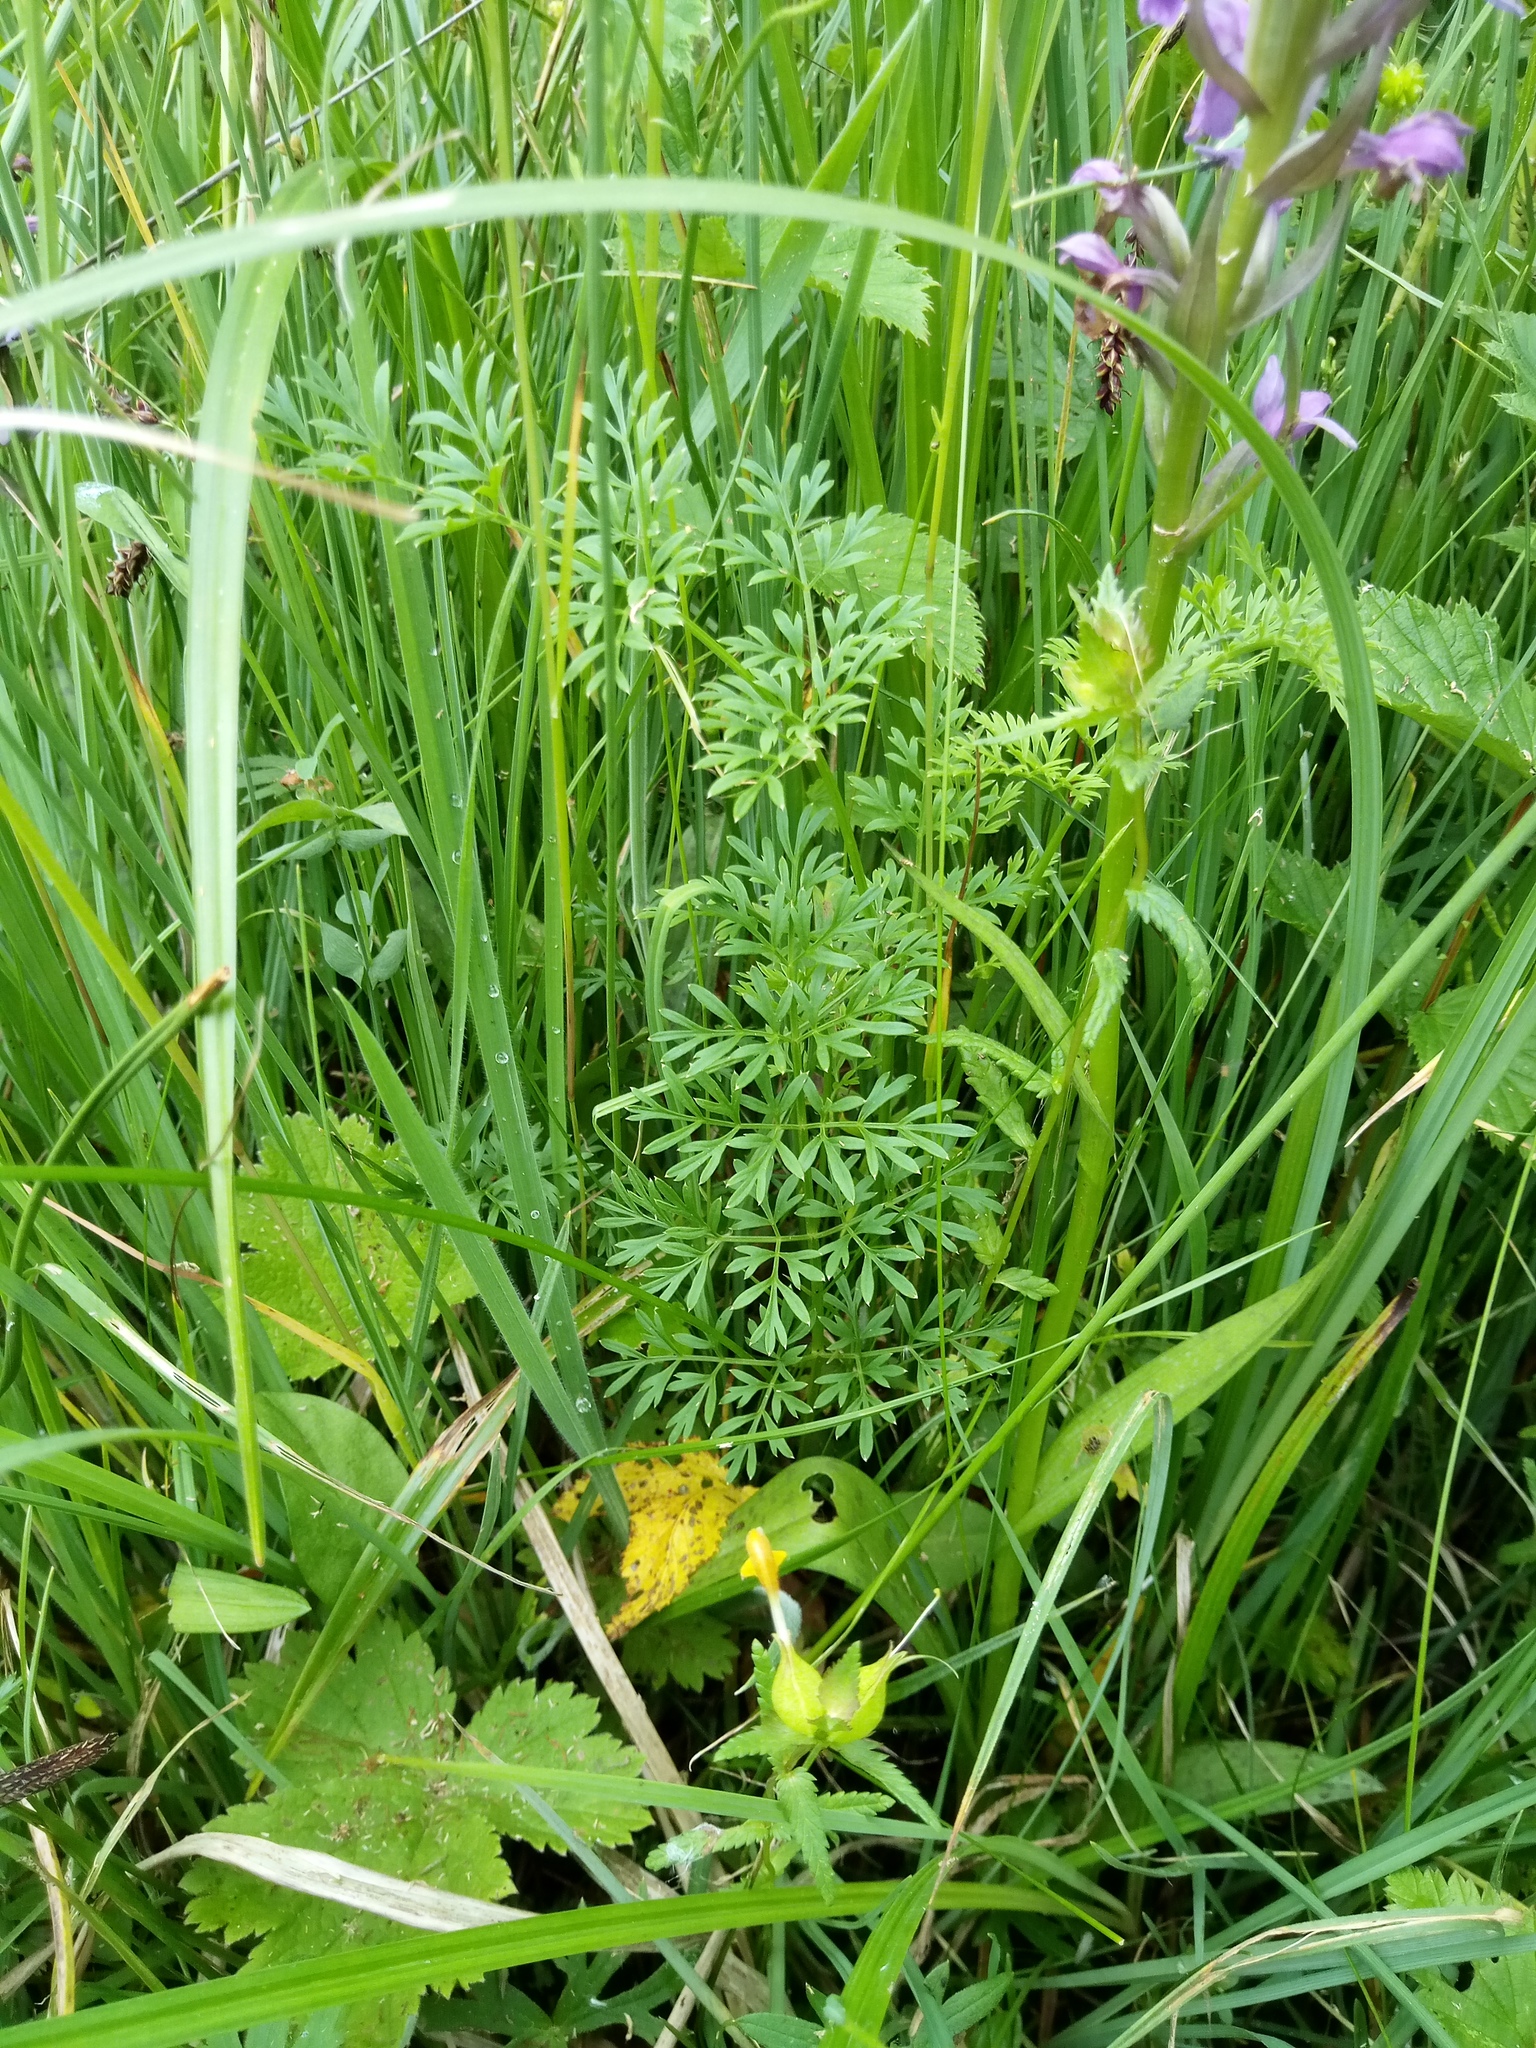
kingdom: Plantae
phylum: Tracheophyta
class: Magnoliopsida
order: Apiales
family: Apiaceae
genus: Selinum
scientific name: Selinum carvifolia
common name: Cambridge milk-parsley
